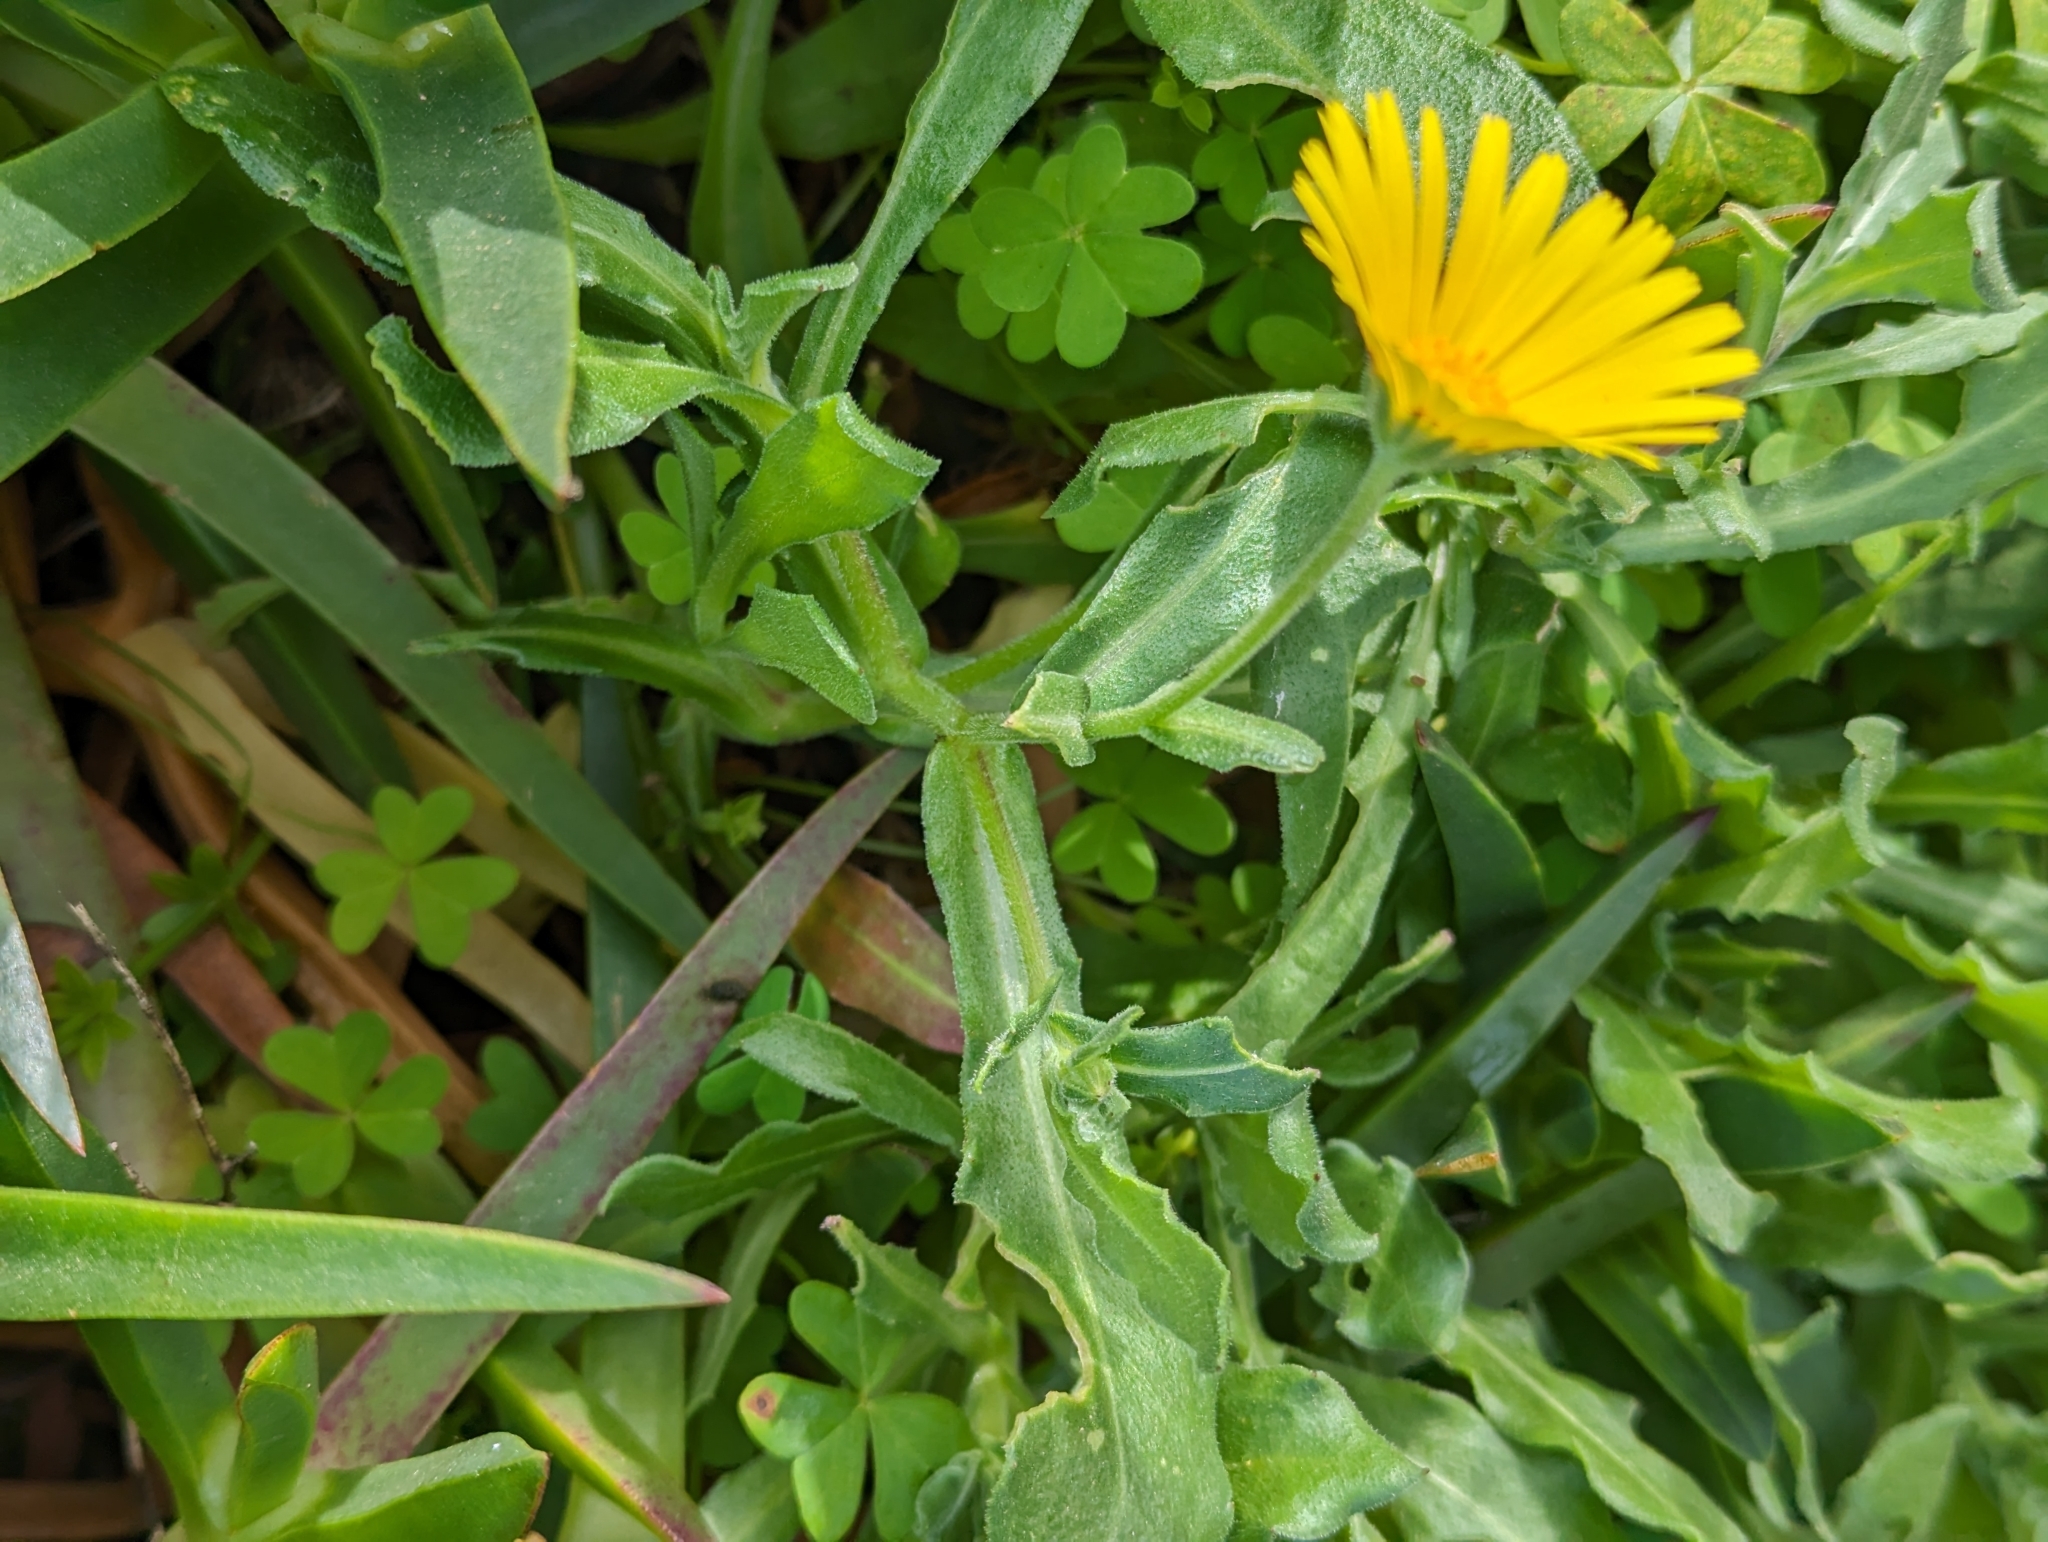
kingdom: Plantae
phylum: Tracheophyta
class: Magnoliopsida
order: Asterales
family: Asteraceae
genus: Calendula
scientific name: Calendula suffruticosa
